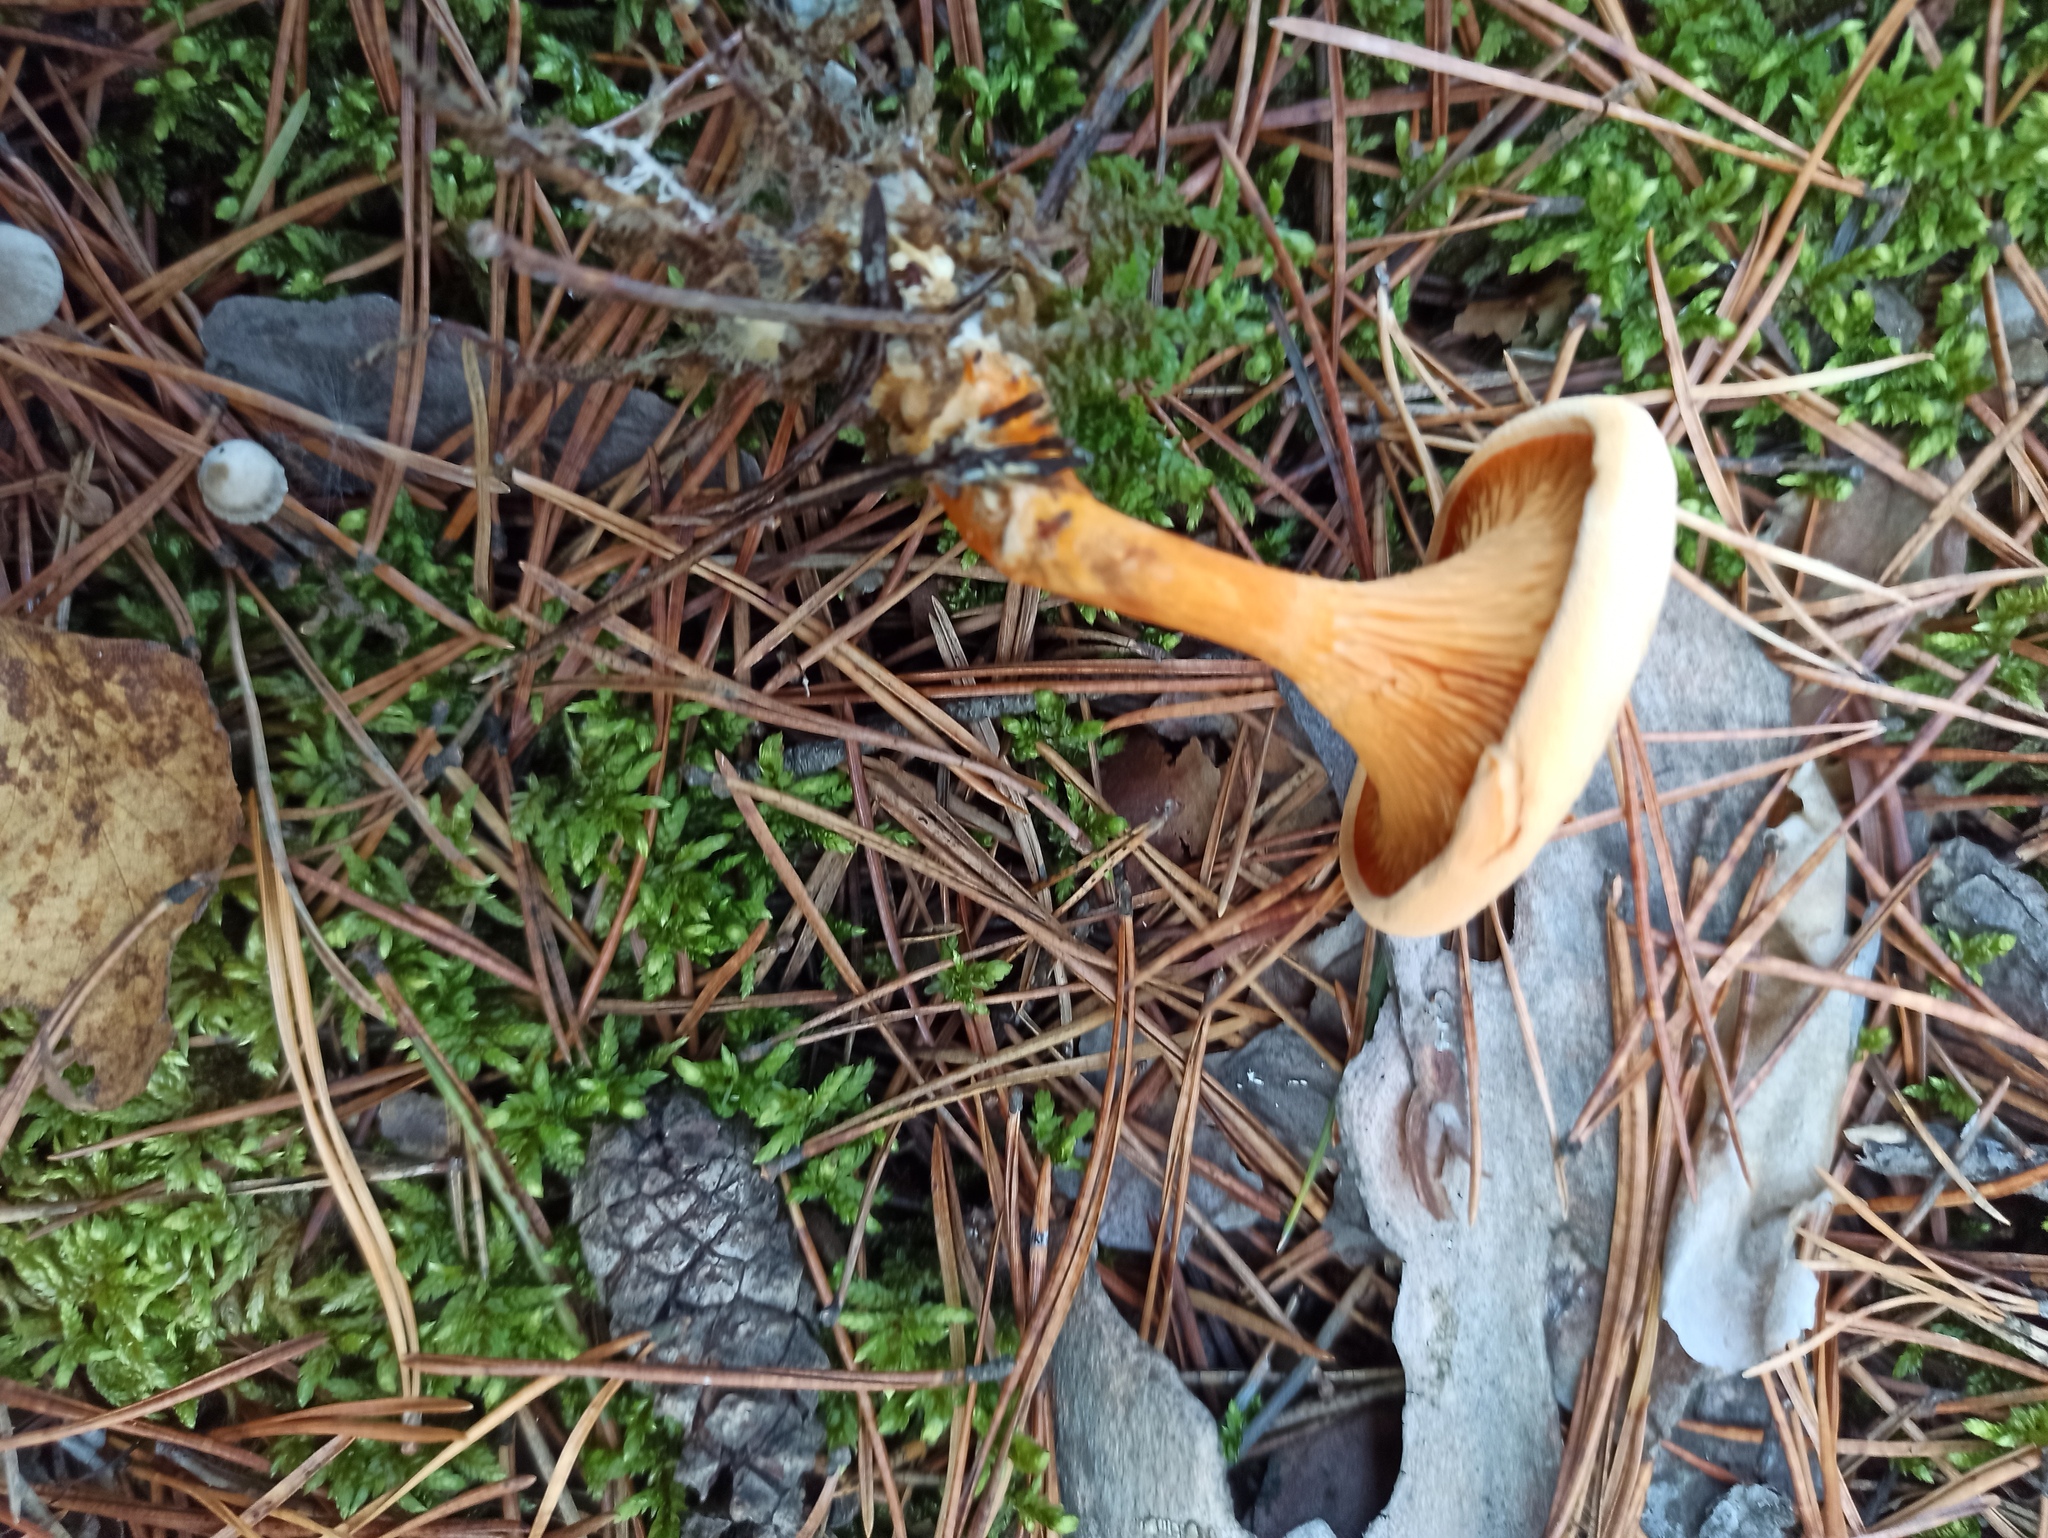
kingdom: Fungi
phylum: Basidiomycota
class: Agaricomycetes
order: Boletales
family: Hygrophoropsidaceae
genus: Hygrophoropsis
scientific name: Hygrophoropsis aurantiaca
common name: False chanterelle
